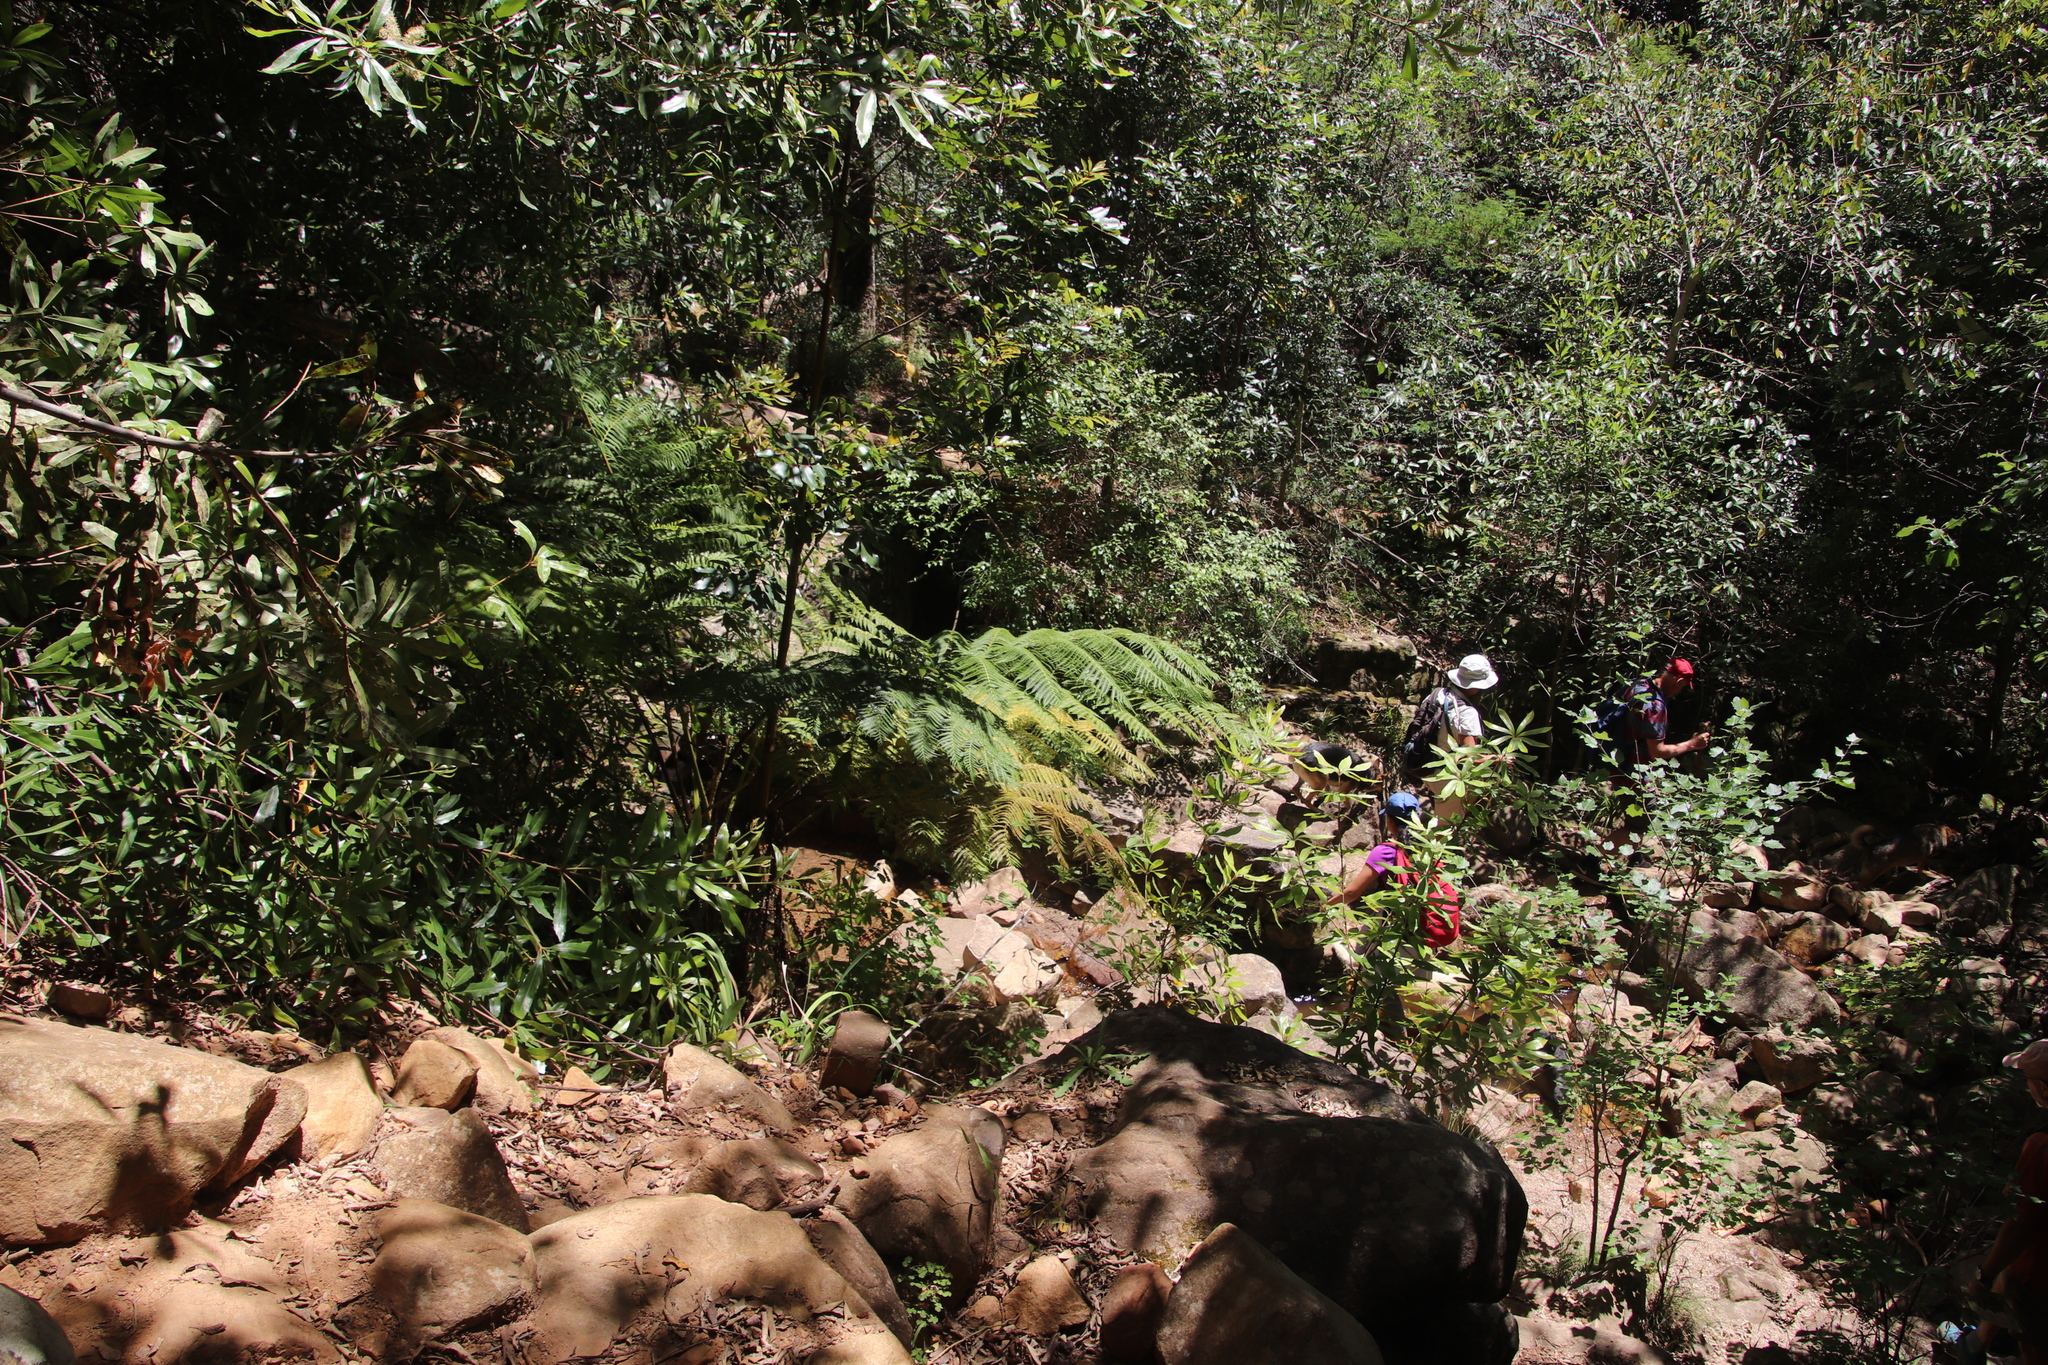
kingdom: Plantae
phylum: Tracheophyta
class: Polypodiopsida
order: Cyatheales
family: Cyatheaceae
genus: Sphaeropteris
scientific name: Sphaeropteris cooperi
